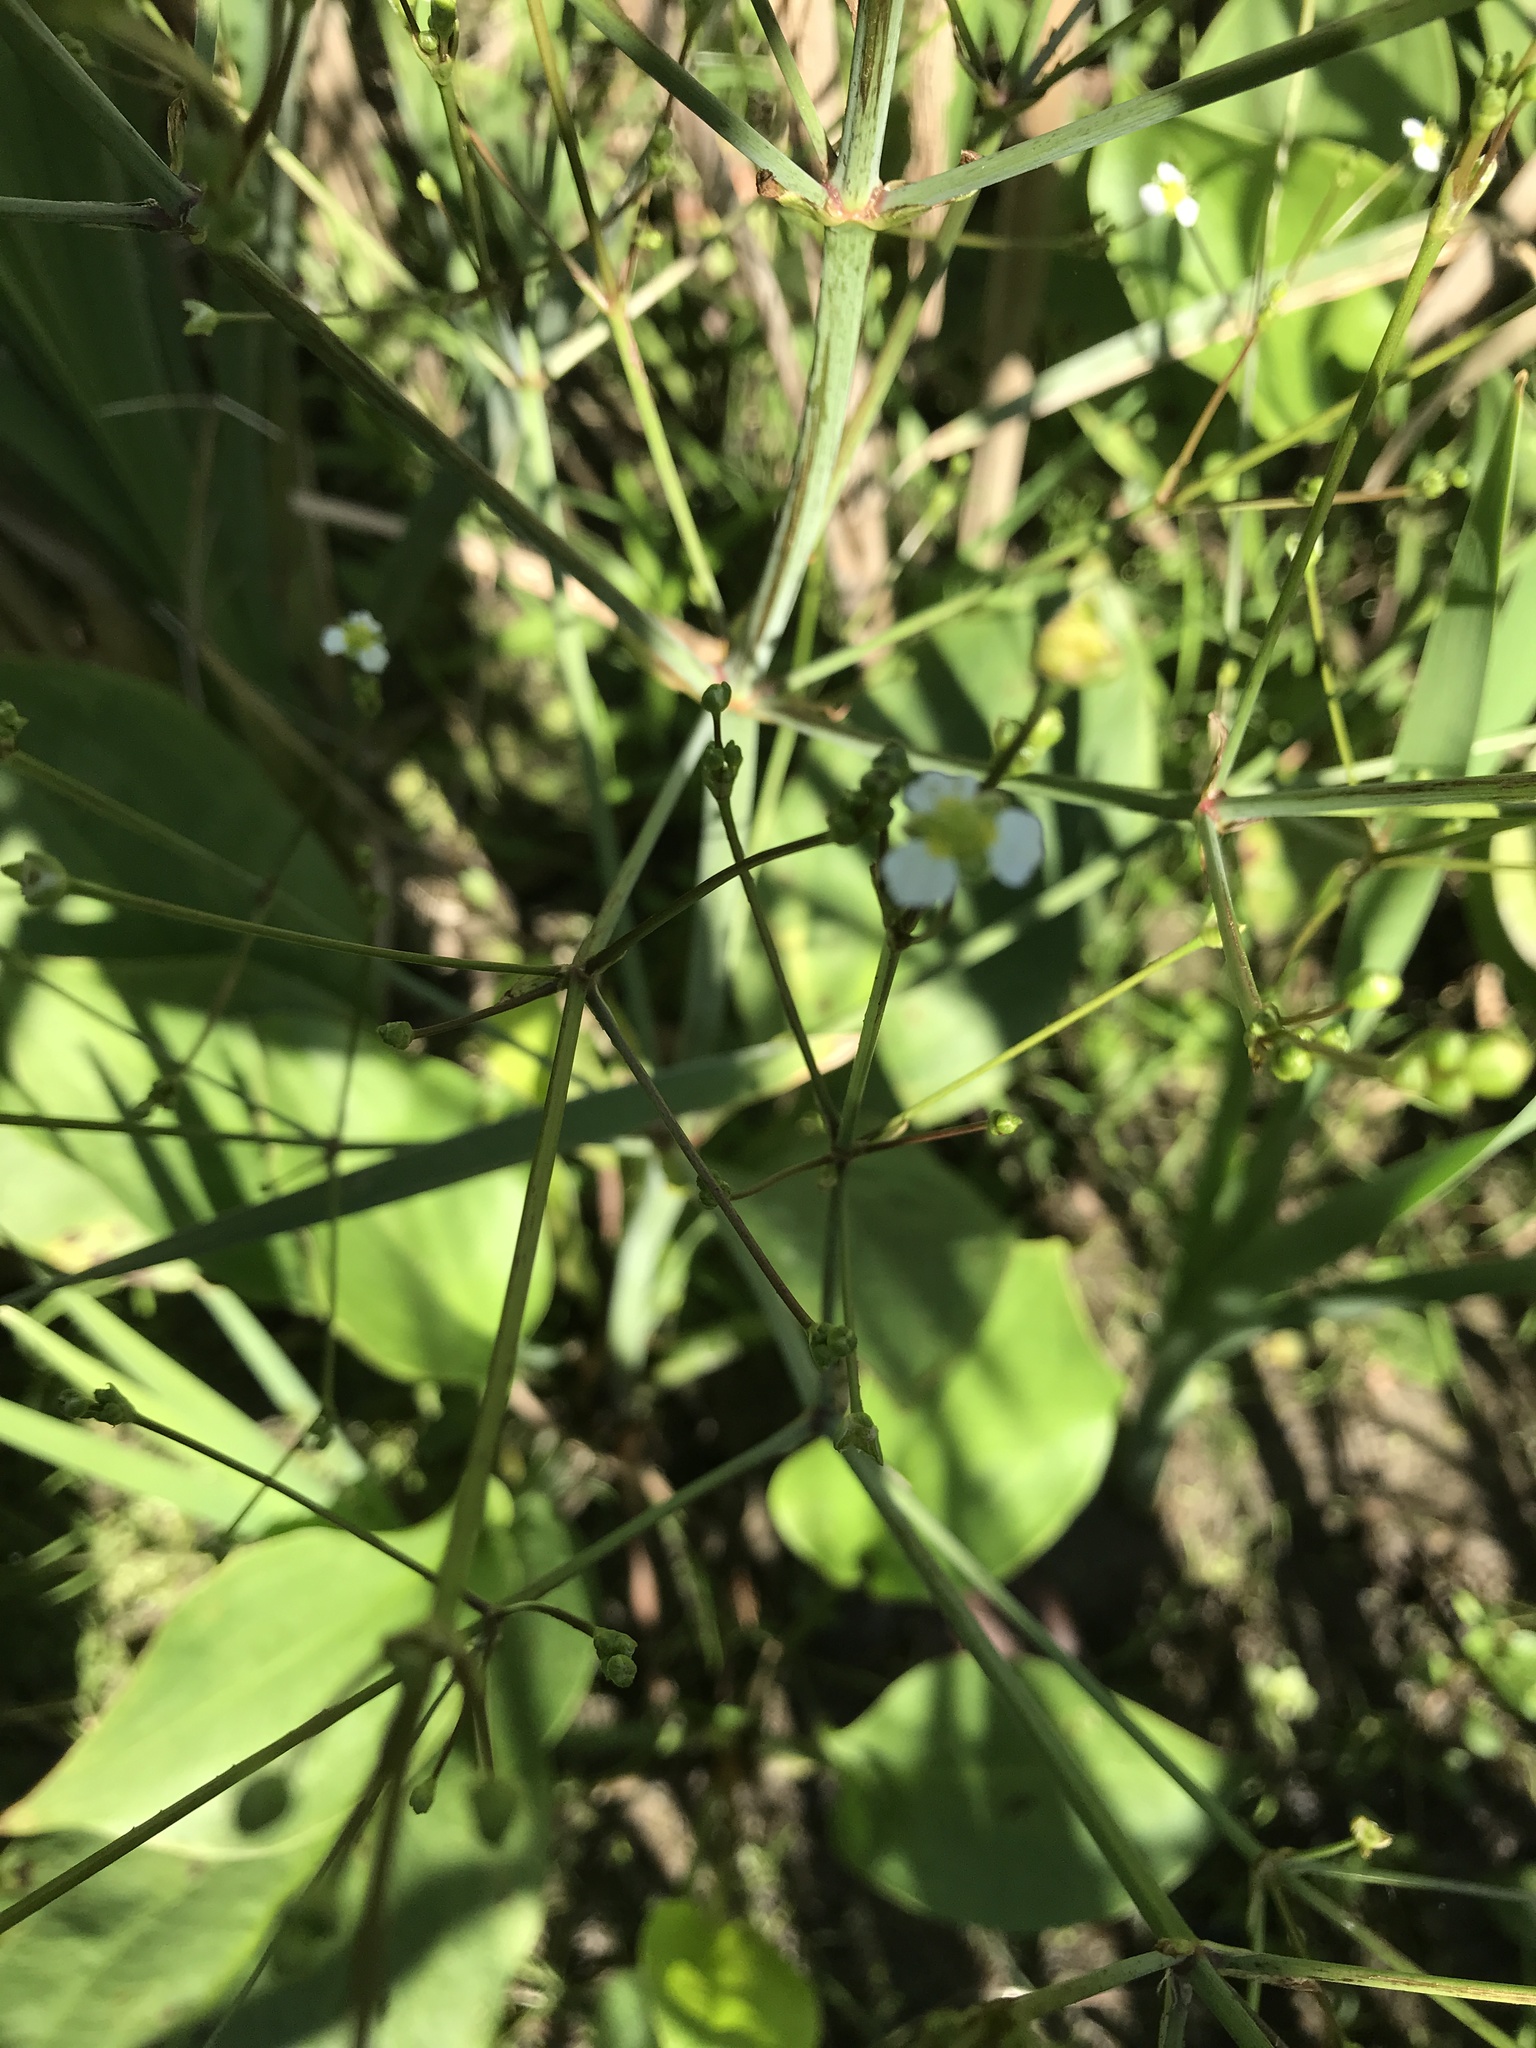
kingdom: Plantae
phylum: Tracheophyta
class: Liliopsida
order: Alismatales
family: Alismataceae
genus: Alisma
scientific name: Alisma triviale
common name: Northern water-plantain
